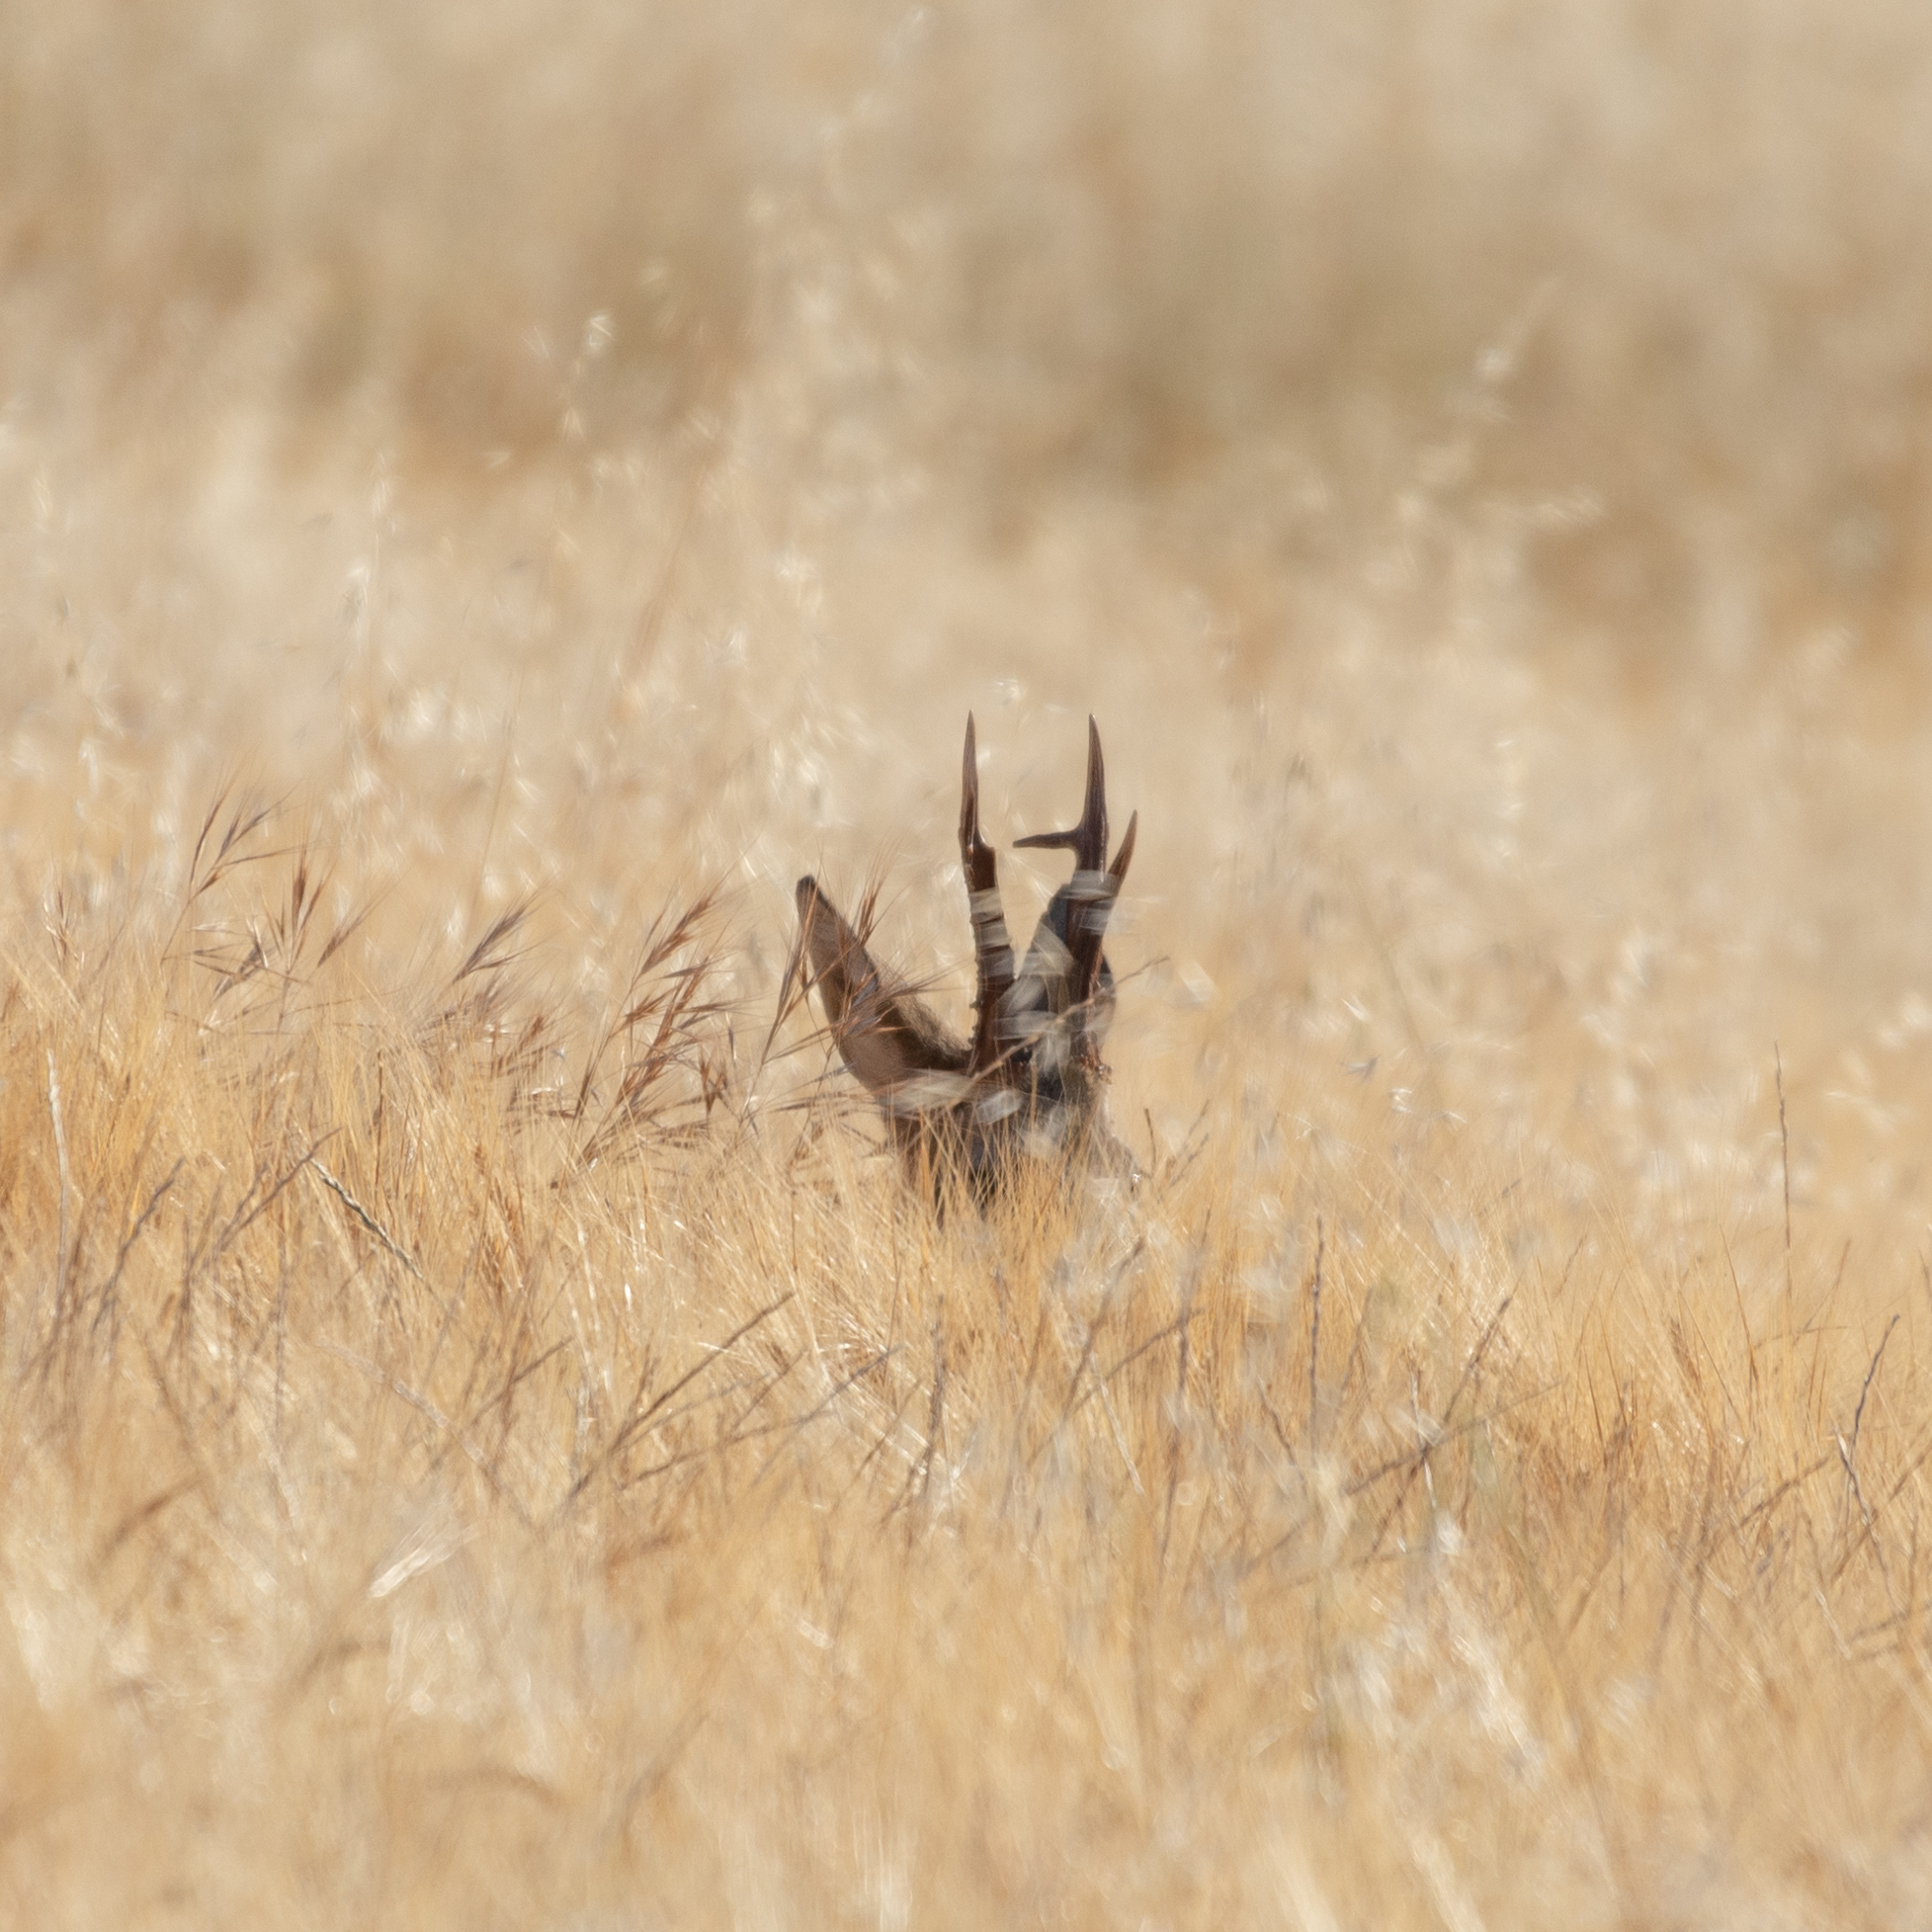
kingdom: Animalia
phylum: Chordata
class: Mammalia
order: Artiodactyla
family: Cervidae
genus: Capreolus
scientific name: Capreolus capreolus
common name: Western roe deer
